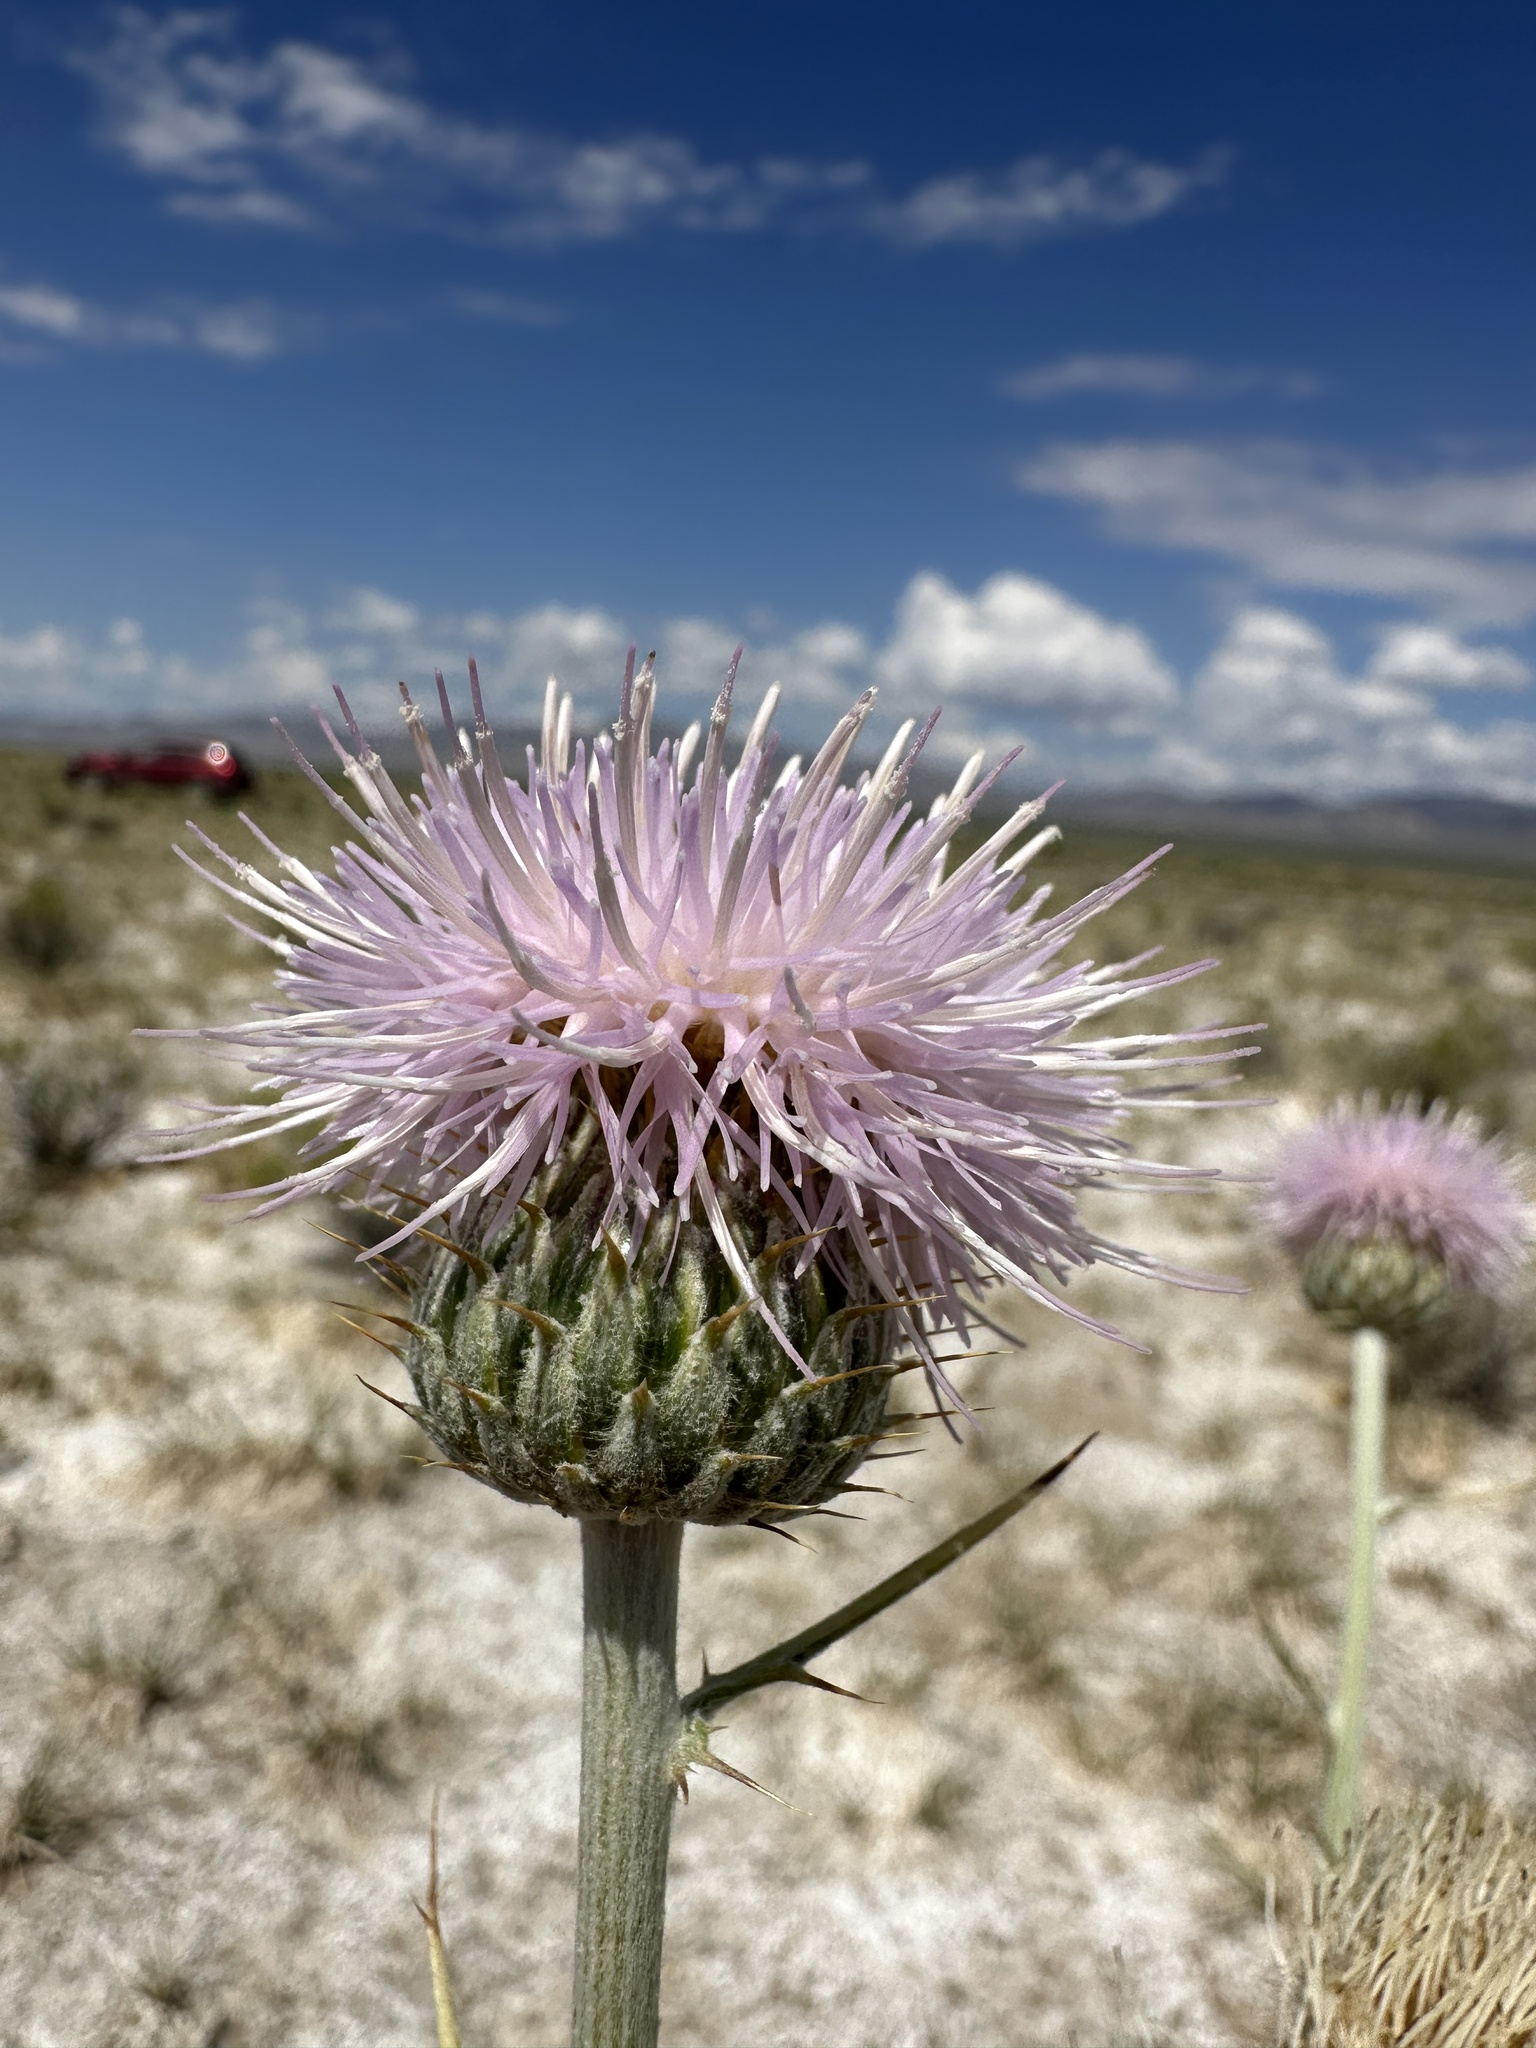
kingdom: Plantae
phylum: Tracheophyta
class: Magnoliopsida
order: Asterales
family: Asteraceae
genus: Cirsium
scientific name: Cirsium mohavense
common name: Mojave thistle
